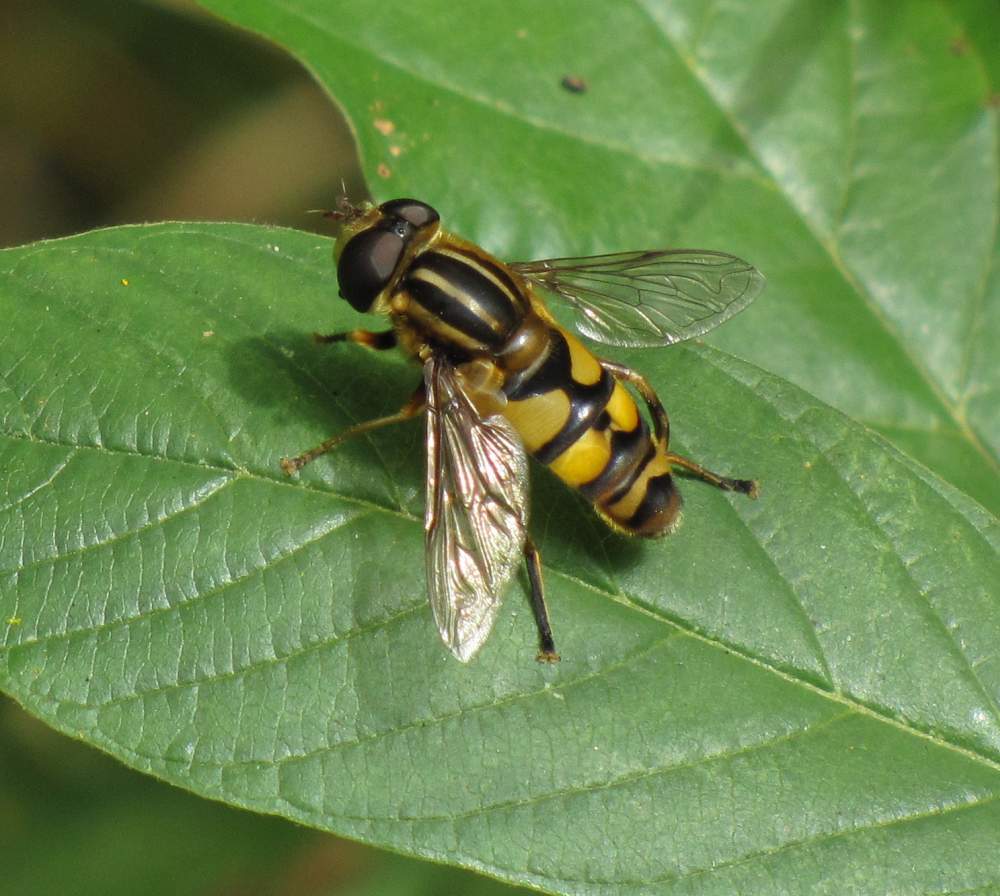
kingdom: Animalia
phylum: Arthropoda
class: Insecta
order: Diptera
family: Syrphidae
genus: Helophilus
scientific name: Helophilus fasciatus
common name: Narrow-headed marsh fly
